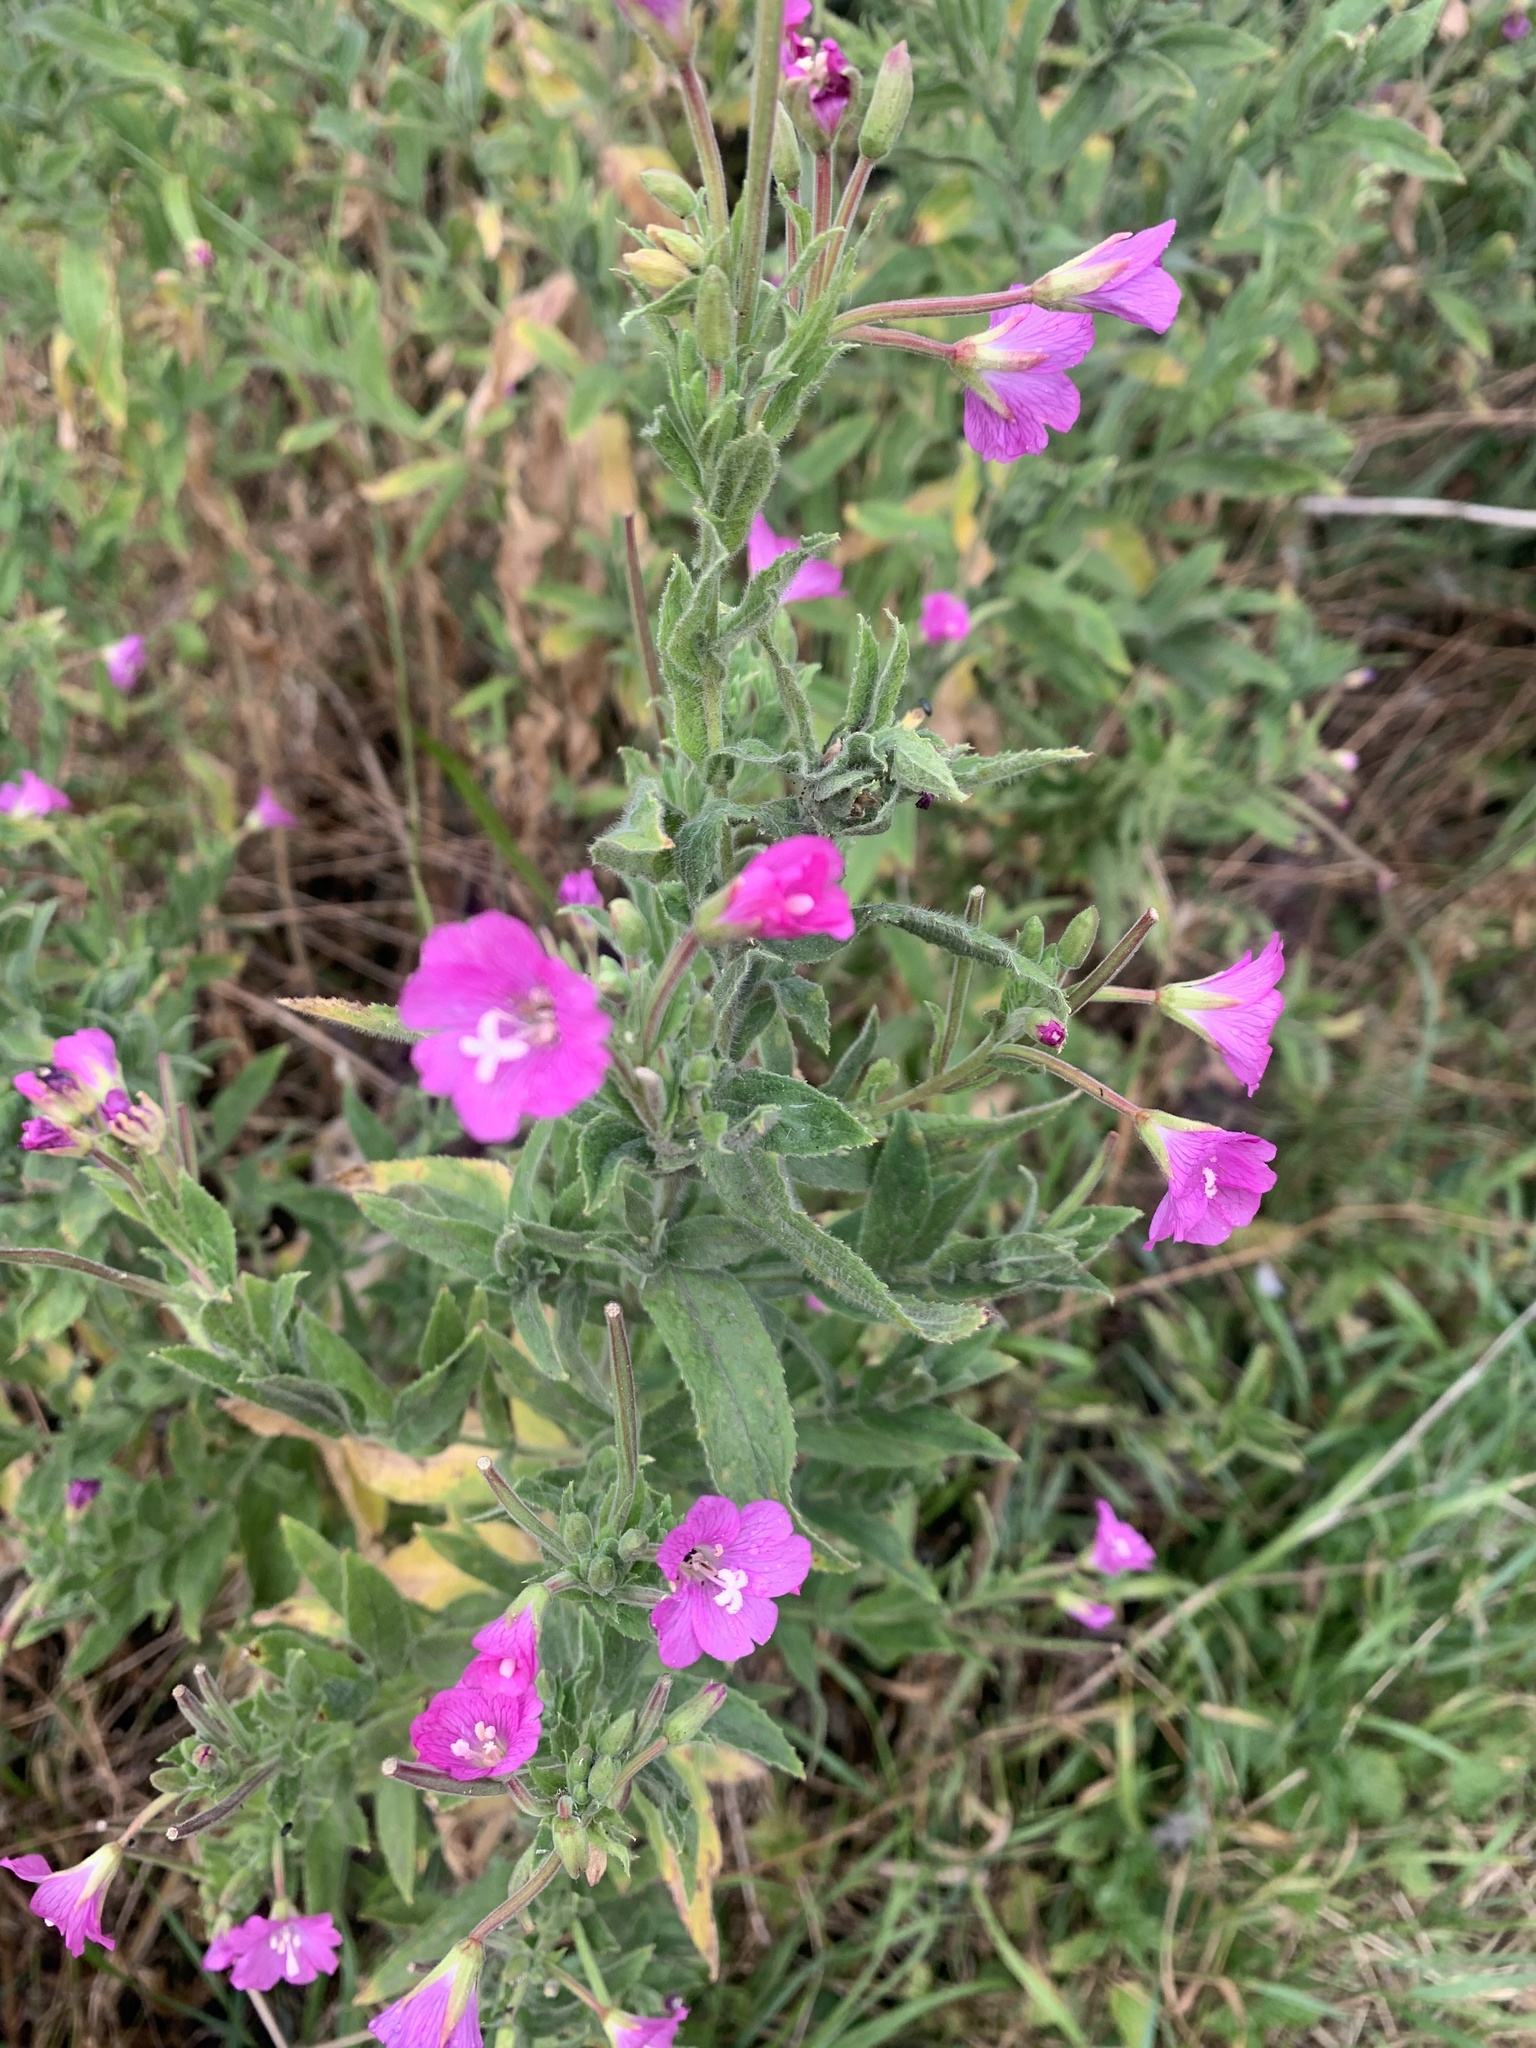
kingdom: Plantae
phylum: Tracheophyta
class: Magnoliopsida
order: Myrtales
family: Onagraceae
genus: Epilobium
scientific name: Epilobium hirsutum
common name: Great willowherb
